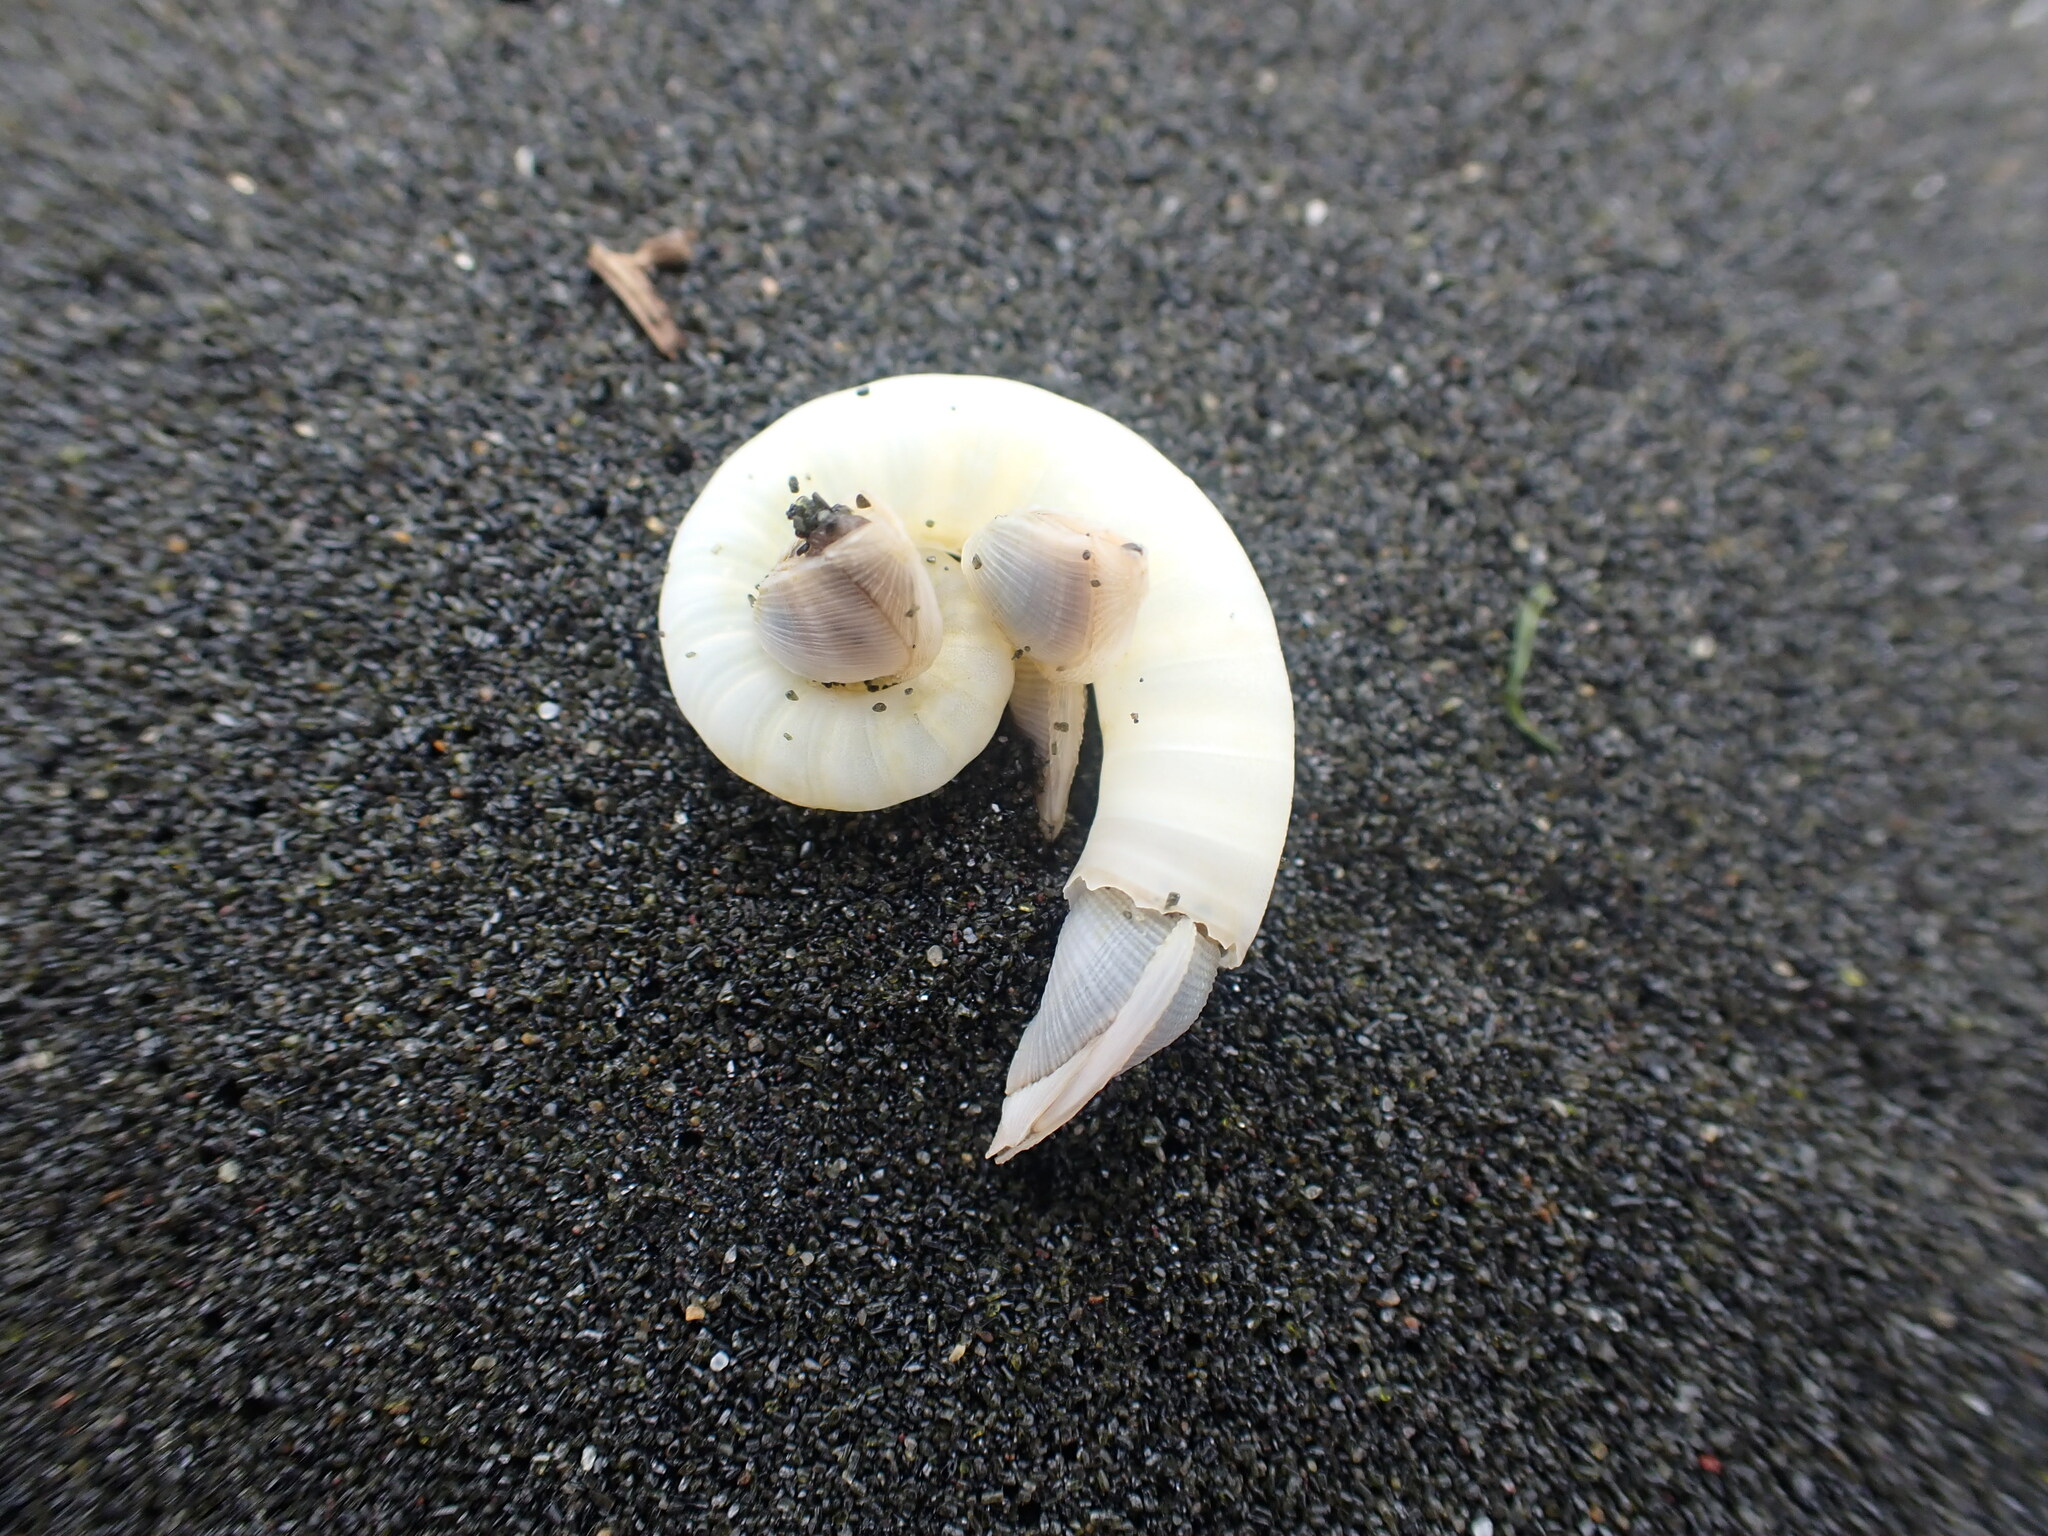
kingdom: Animalia
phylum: Mollusca
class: Cephalopoda
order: Spirulida
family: Spirulidae
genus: Spirula
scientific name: Spirula spirula
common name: Ram's horn squid
